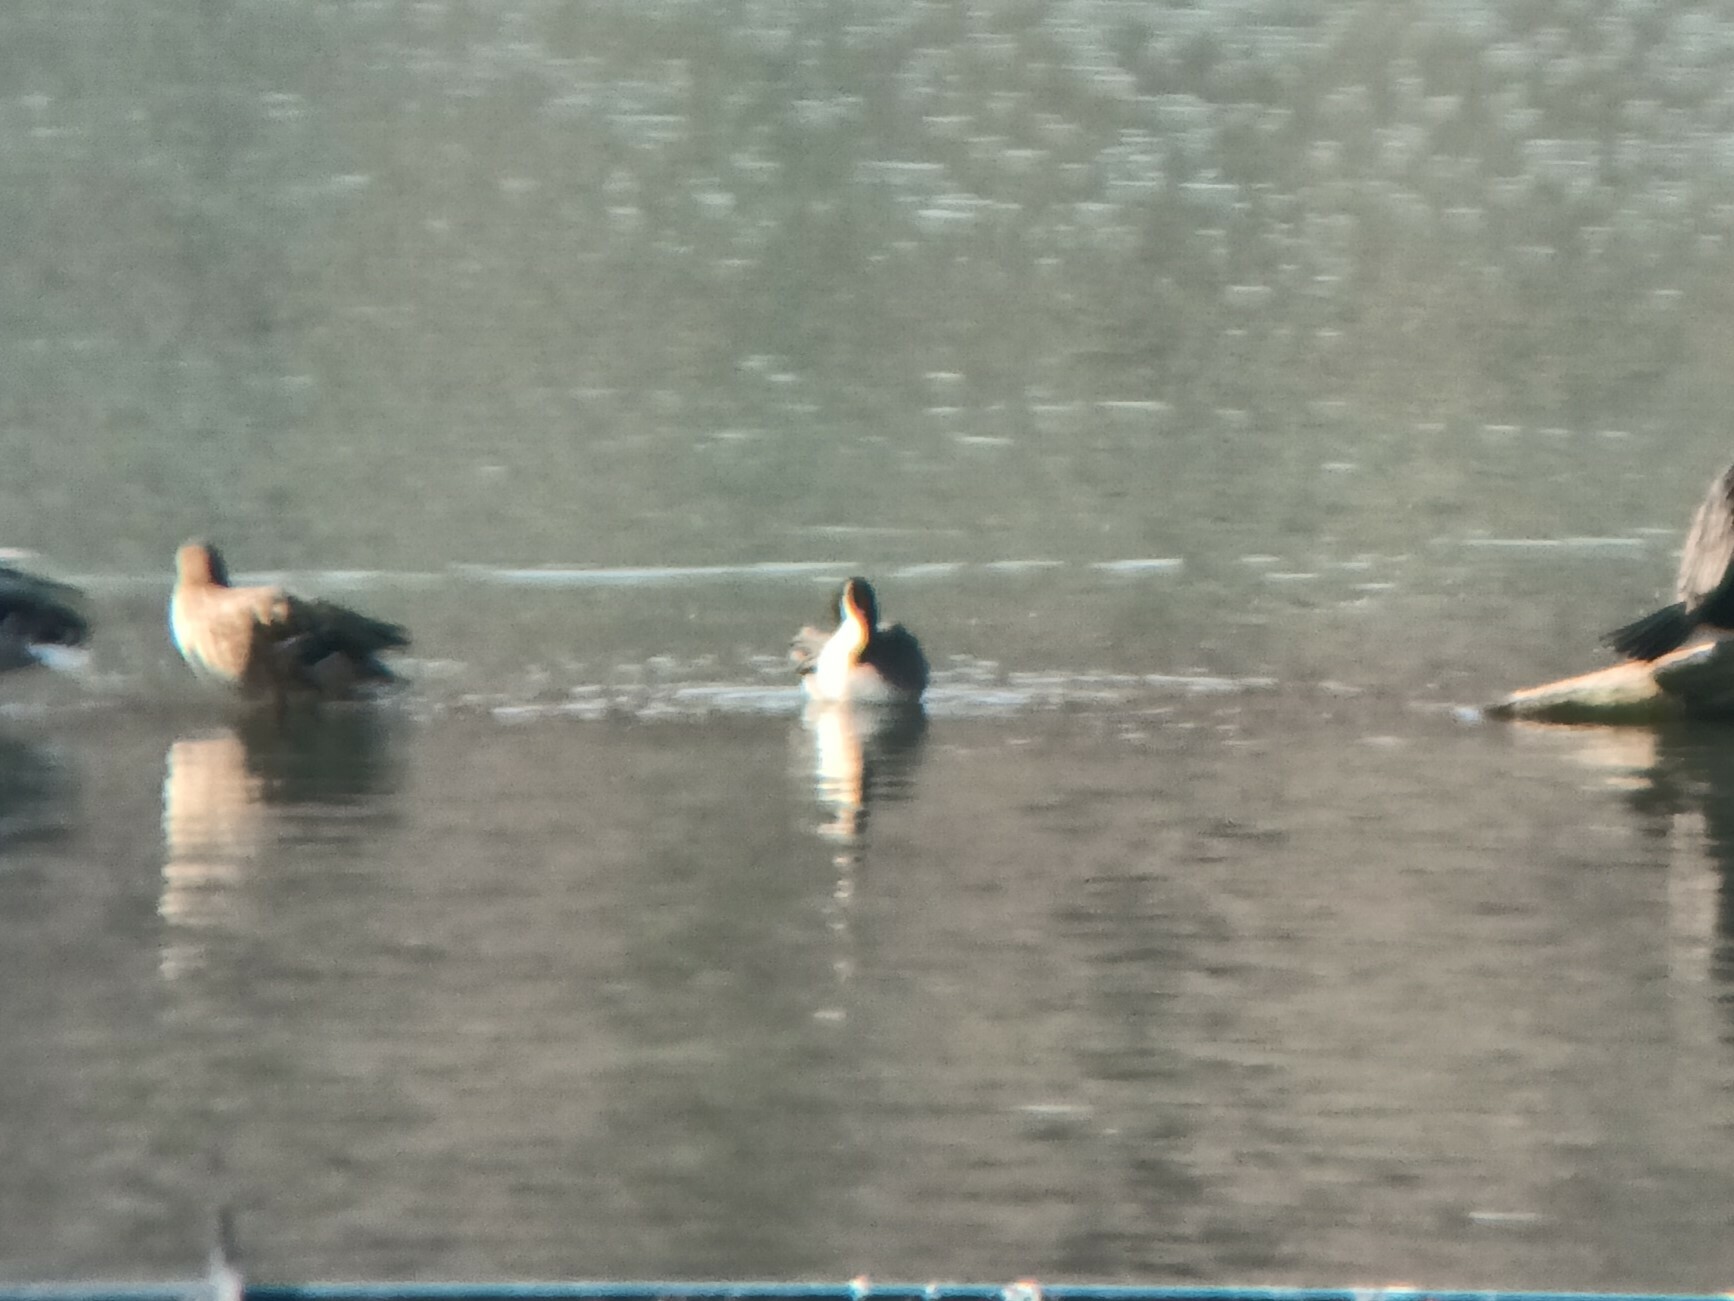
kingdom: Animalia
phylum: Chordata
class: Aves
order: Anseriformes
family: Anatidae
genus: Anas
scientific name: Anas acuta
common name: Northern pintail
